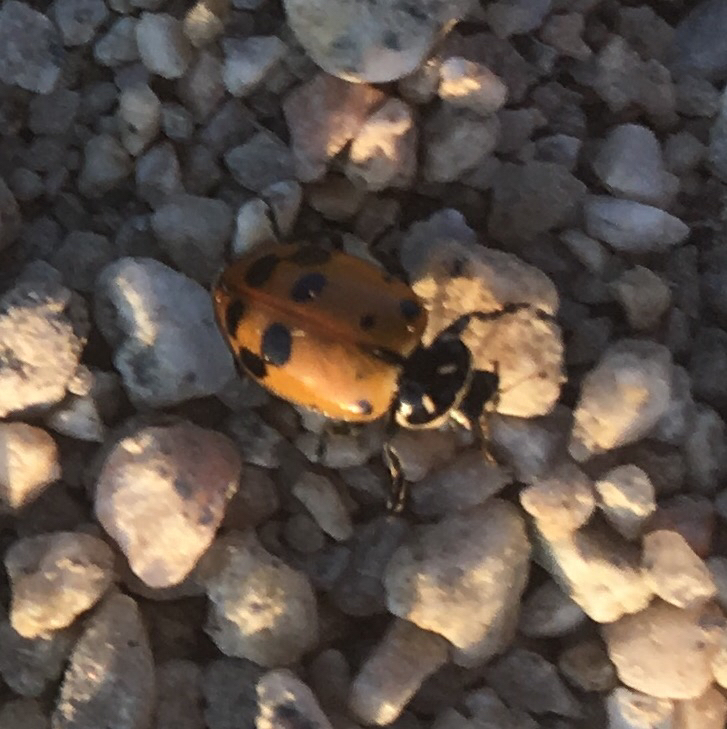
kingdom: Animalia
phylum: Arthropoda
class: Insecta
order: Coleoptera
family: Coccinellidae
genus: Hippodamia
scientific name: Hippodamia convergens
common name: Convergent lady beetle
